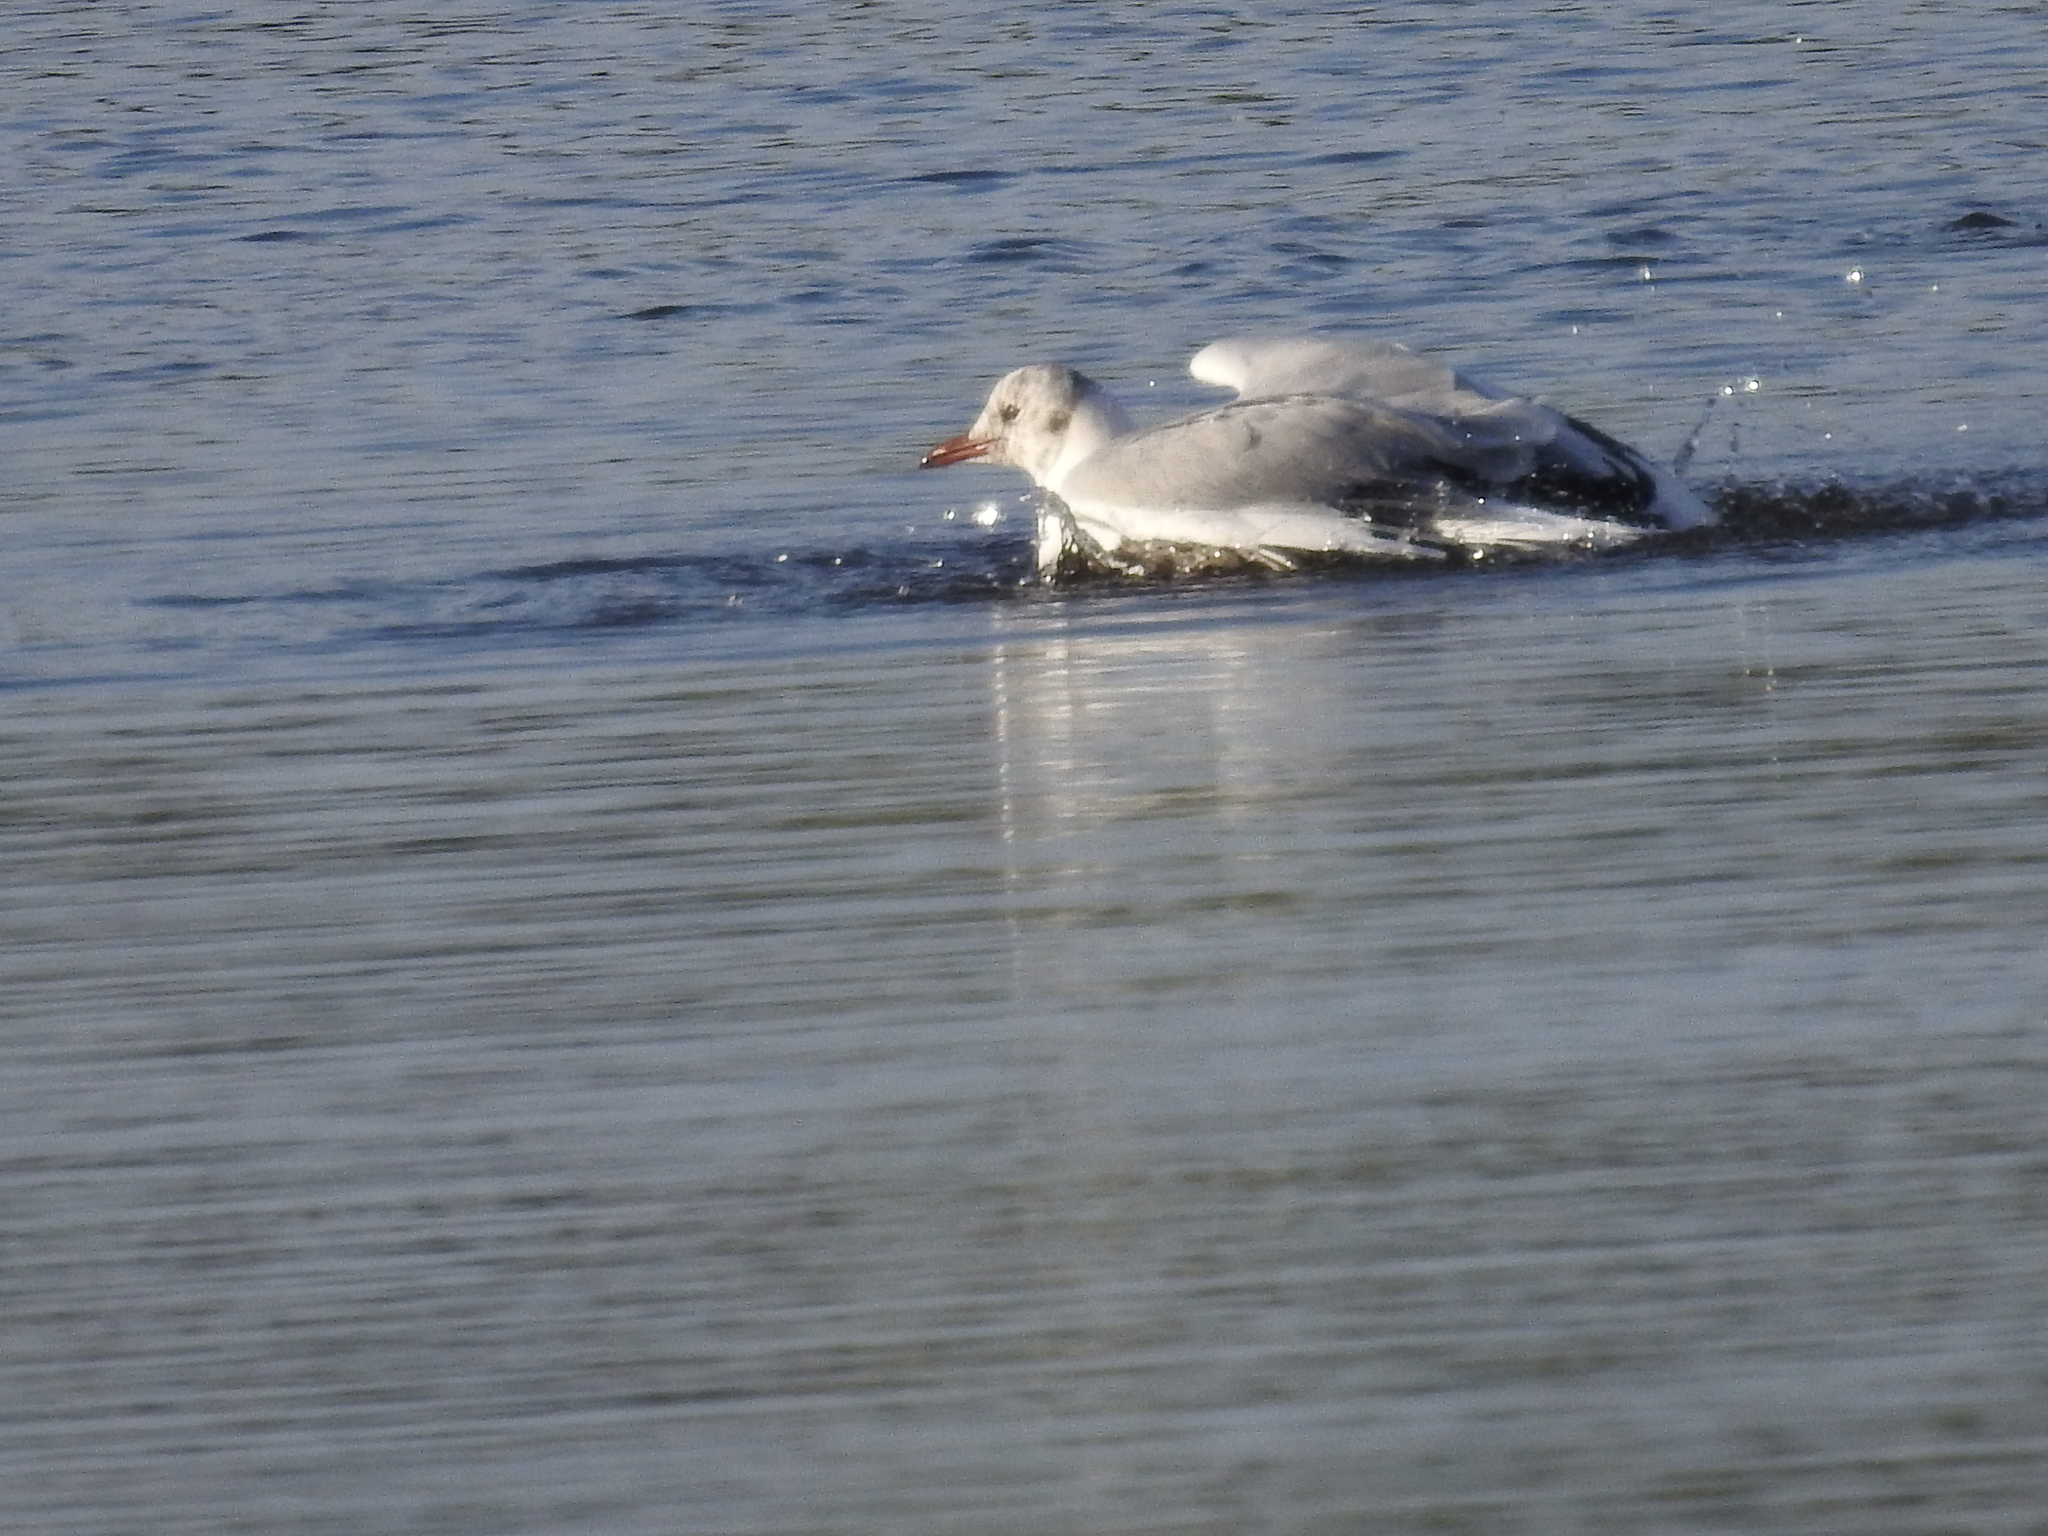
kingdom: Animalia
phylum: Chordata
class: Aves
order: Charadriiformes
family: Laridae
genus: Chroicocephalus
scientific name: Chroicocephalus maculipennis
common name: Brown-hooded gull
